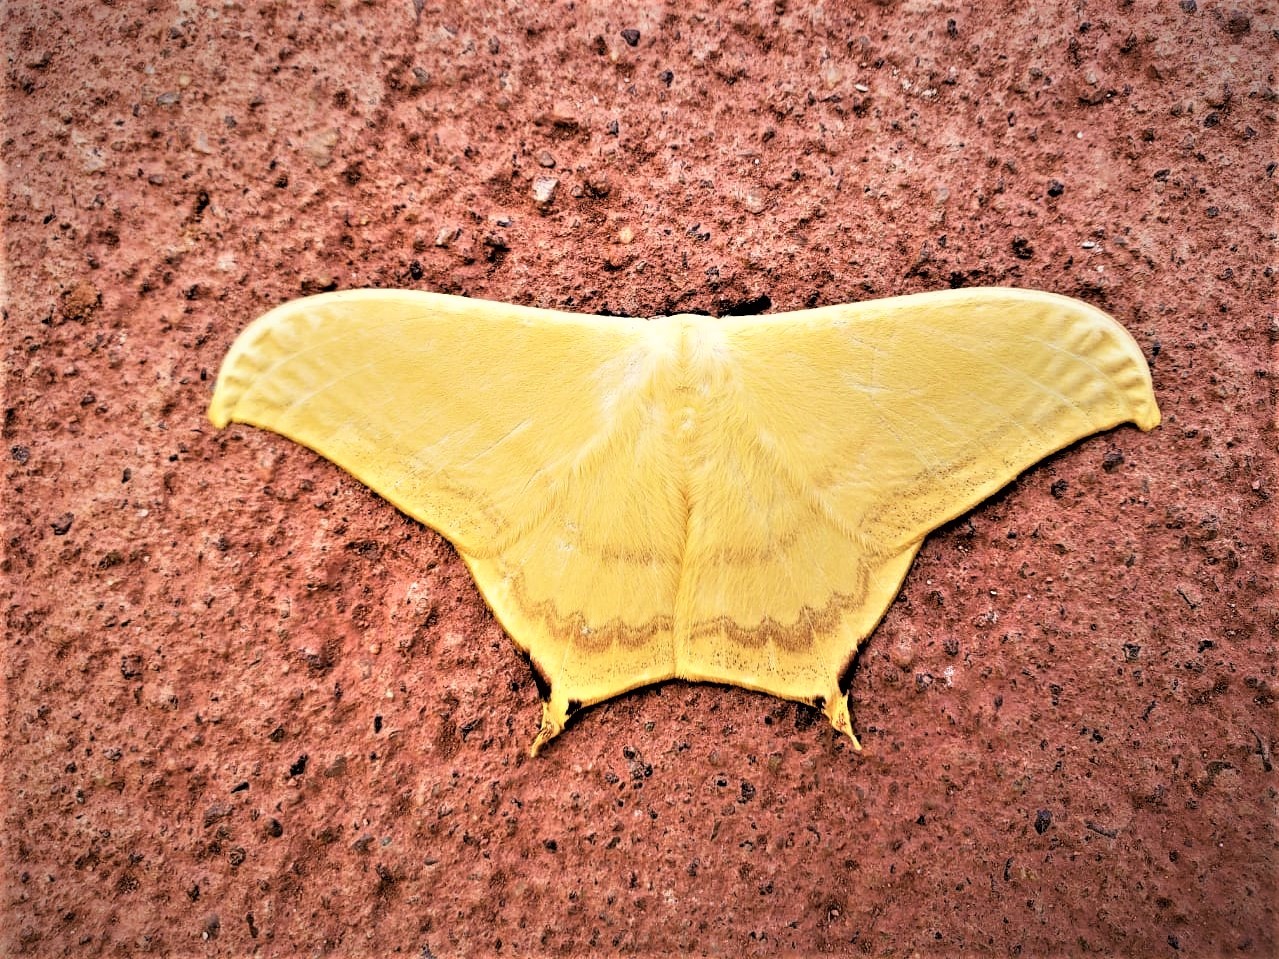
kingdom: Animalia
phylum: Arthropoda
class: Insecta
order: Lepidoptera
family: Saturniidae
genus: Therinia
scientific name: Therinia buckleyi
